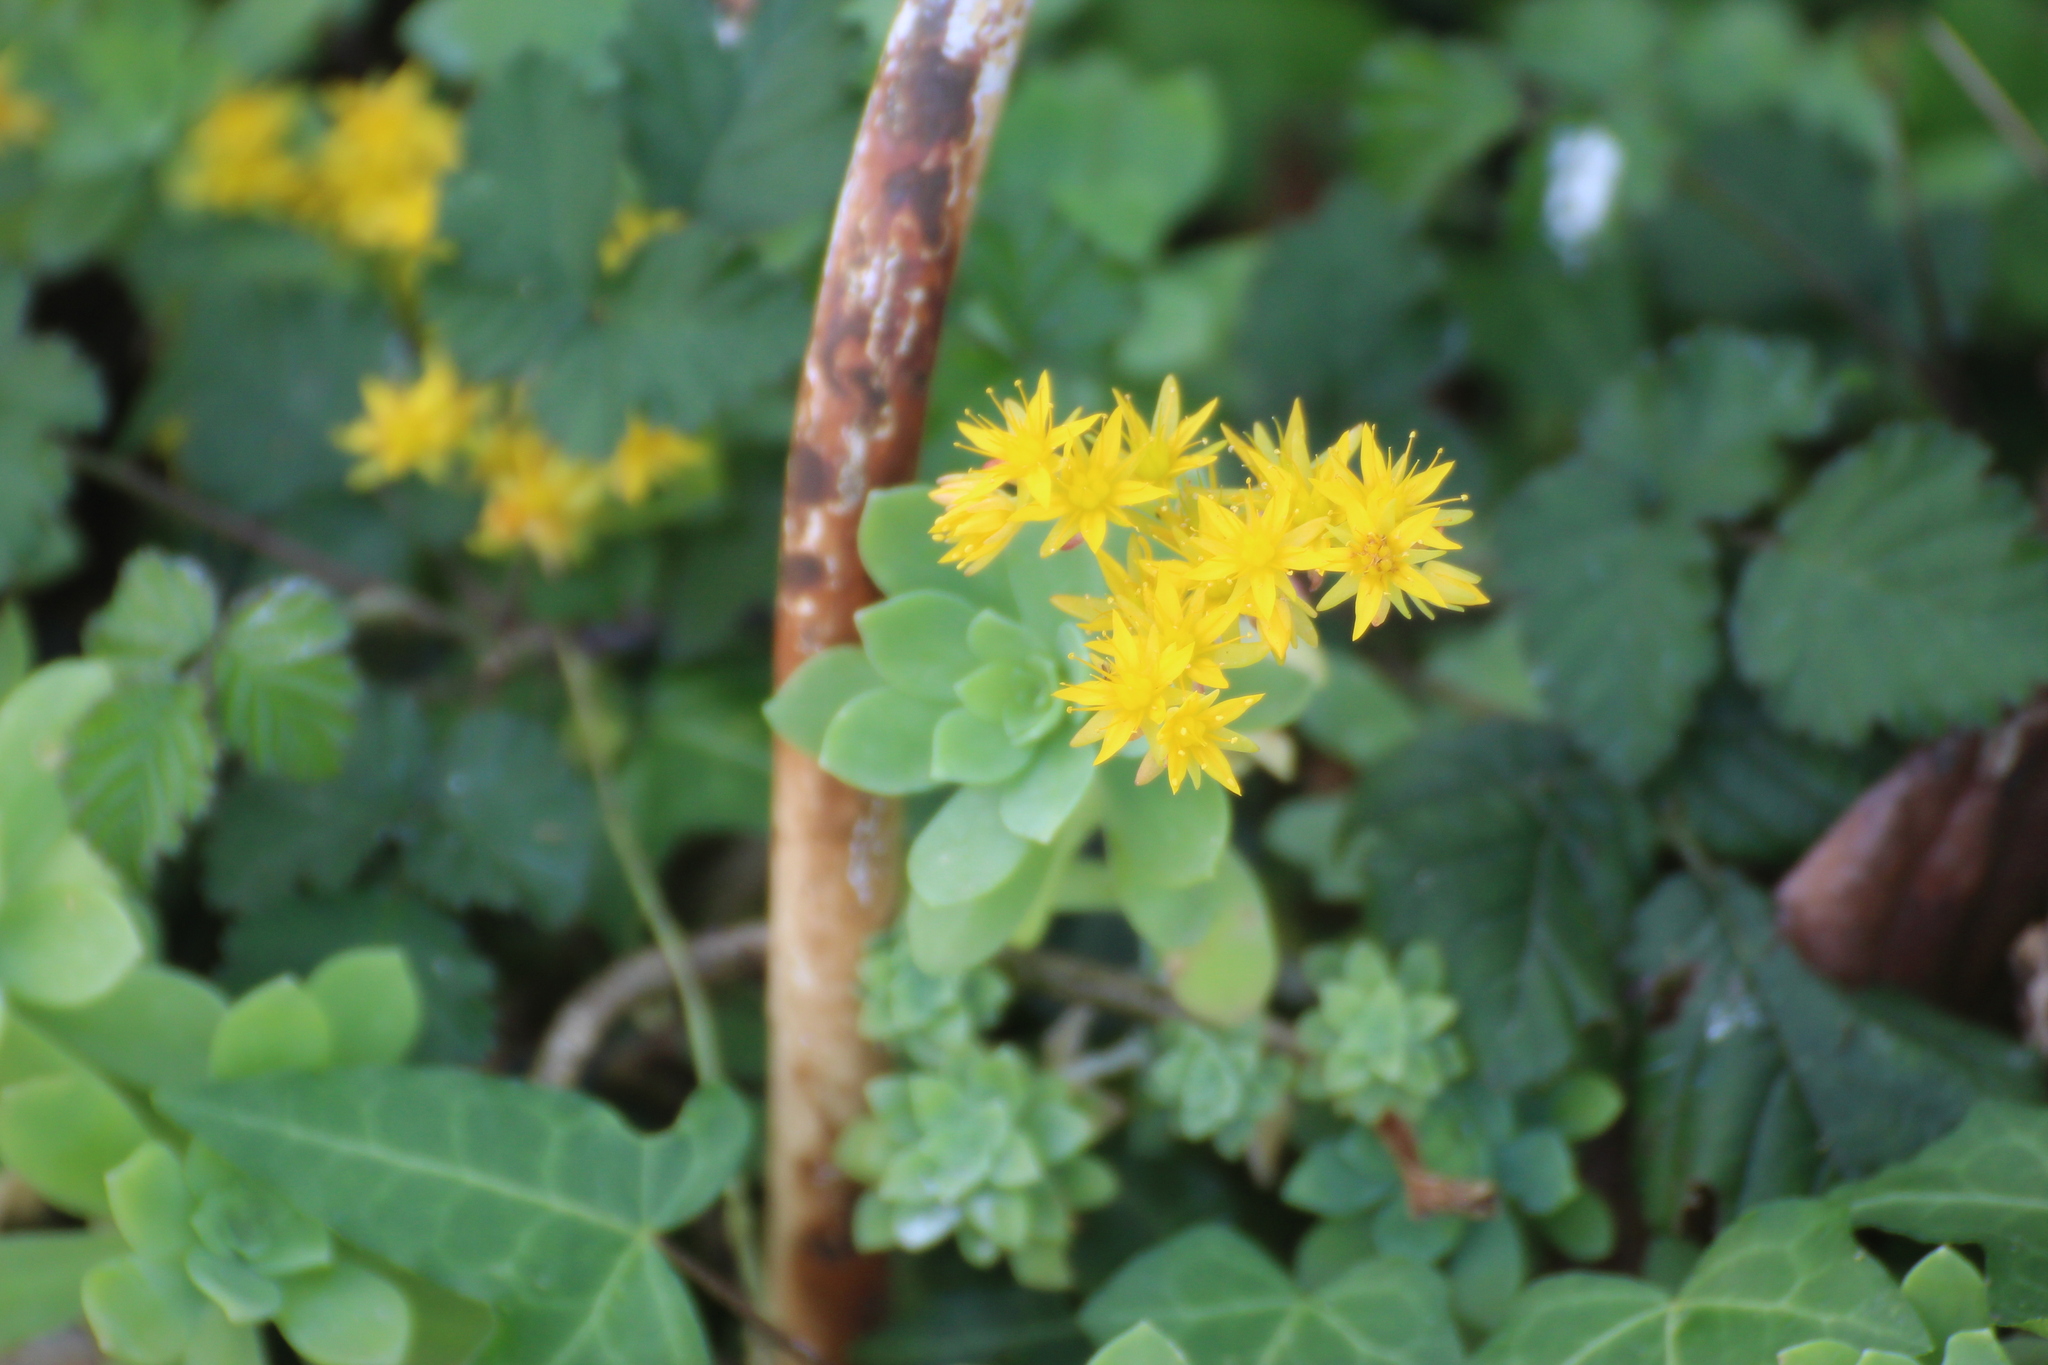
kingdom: Plantae
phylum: Tracheophyta
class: Magnoliopsida
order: Saxifragales
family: Crassulaceae
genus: Sedum
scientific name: Sedum palmeri
